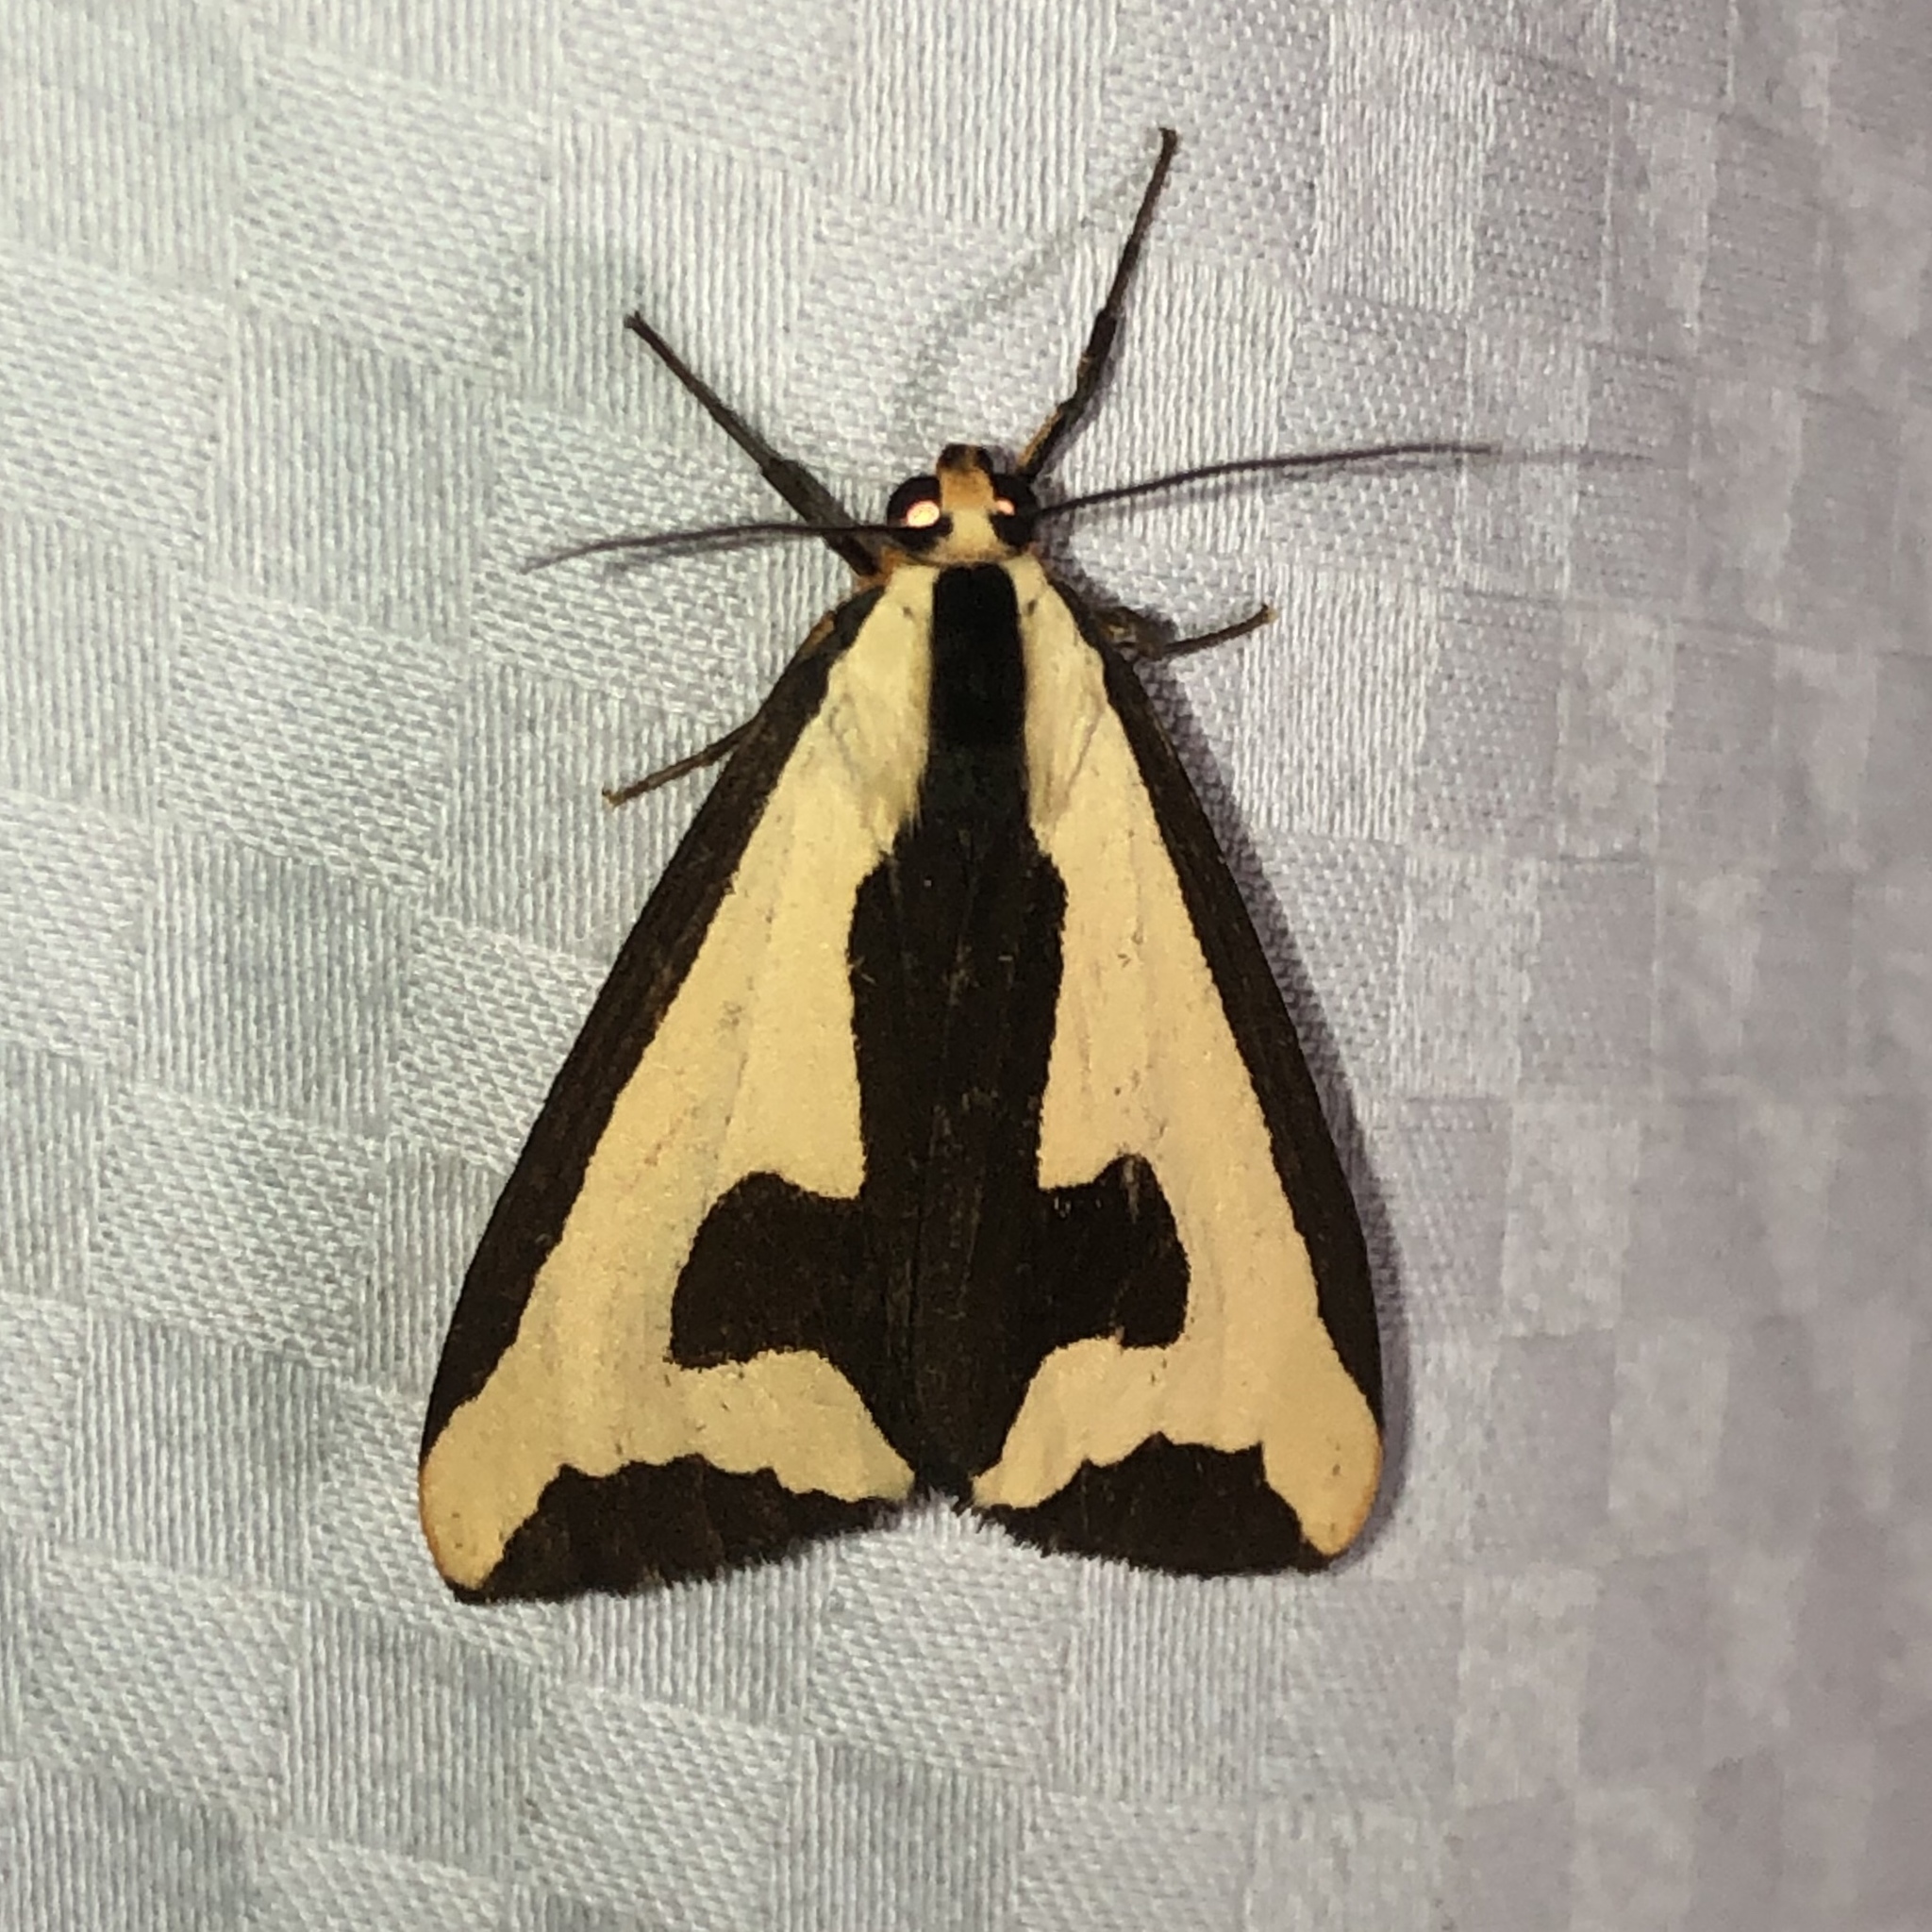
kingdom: Animalia
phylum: Arthropoda
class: Insecta
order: Lepidoptera
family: Erebidae
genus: Haploa
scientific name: Haploa clymene
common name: Clymene moth
